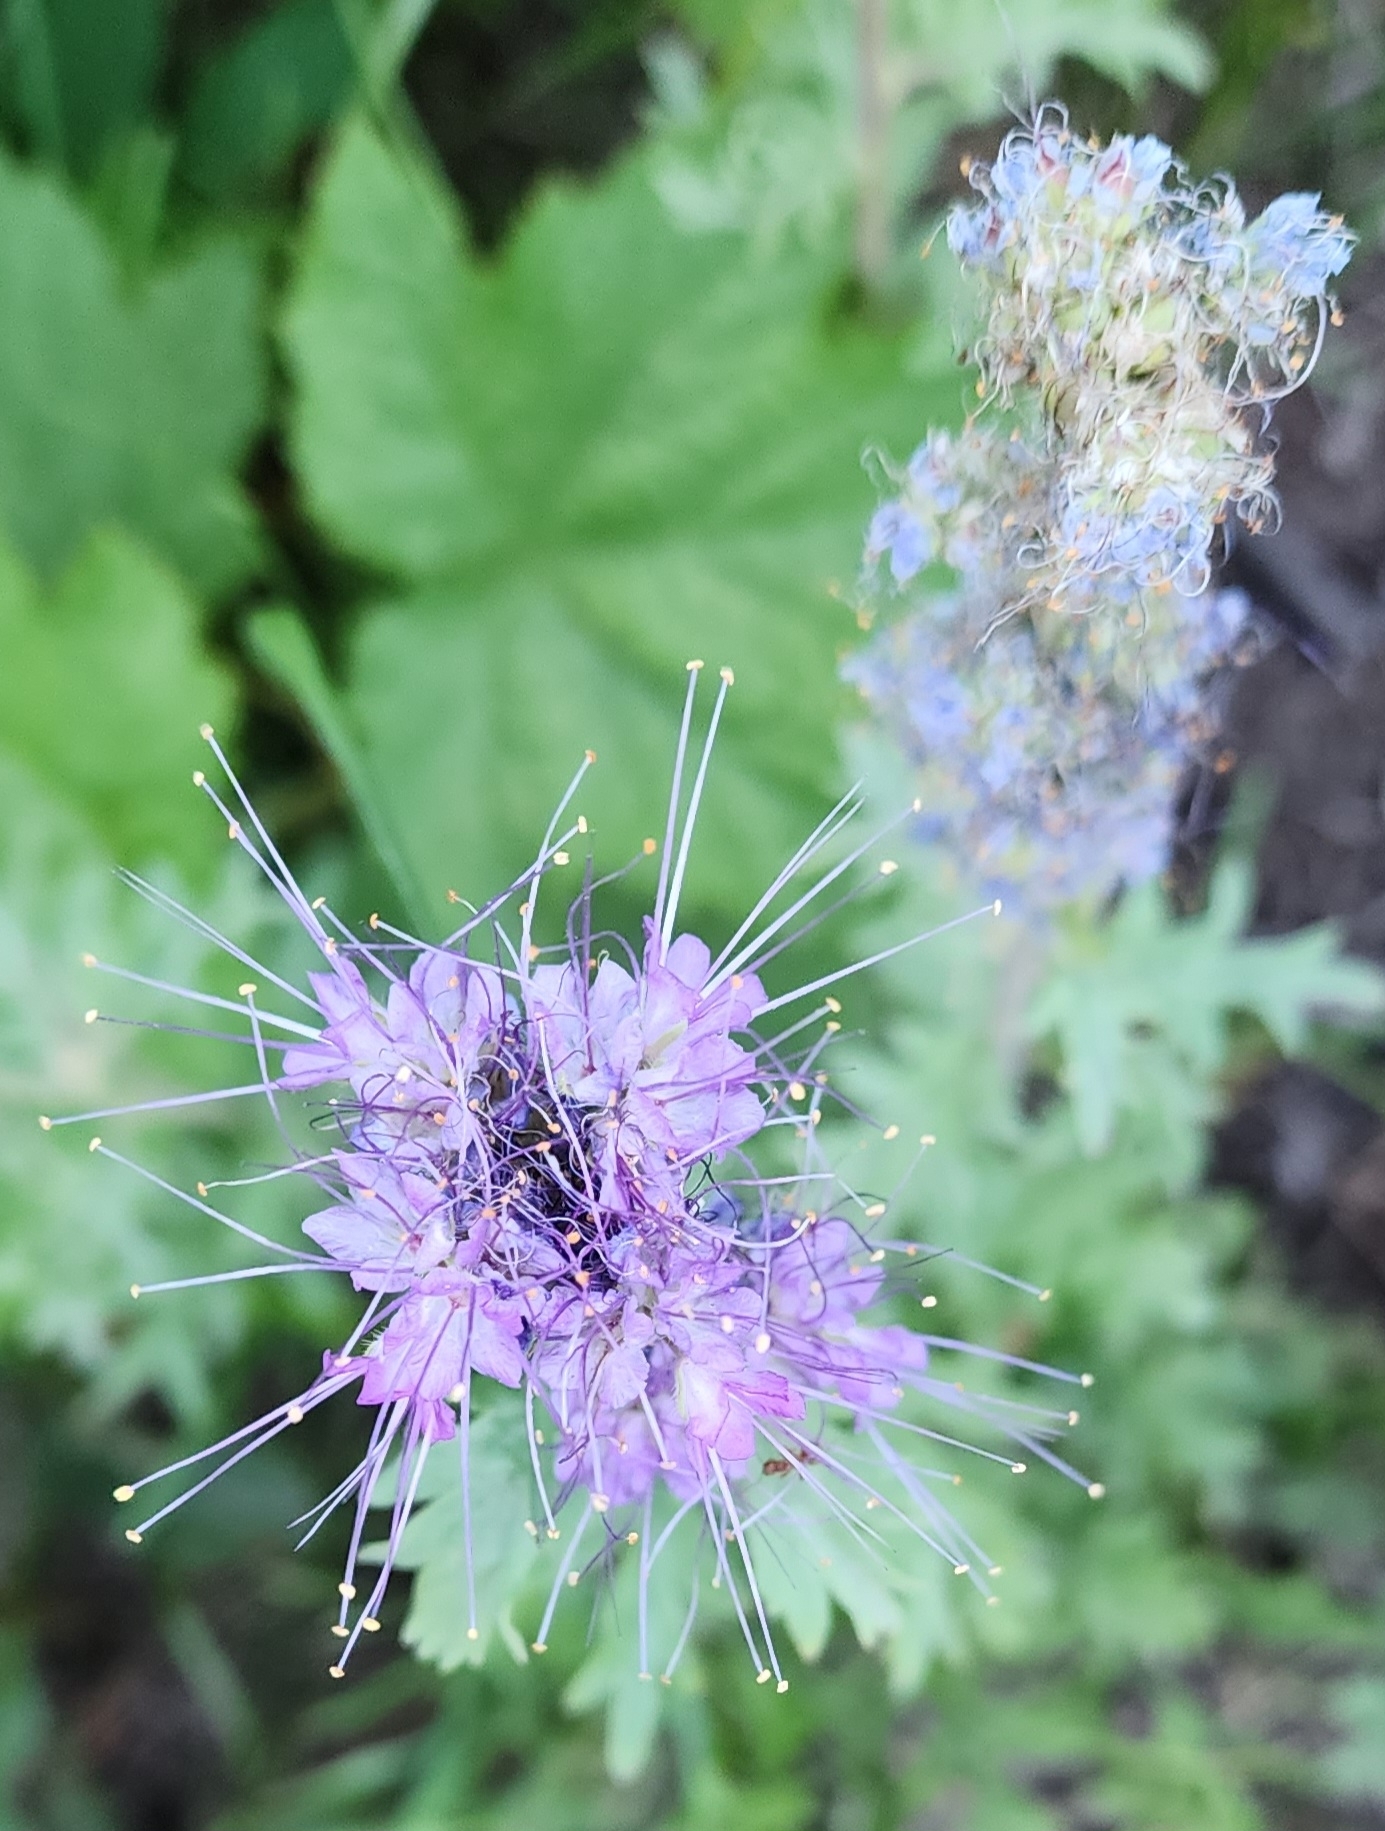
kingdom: Plantae
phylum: Tracheophyta
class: Magnoliopsida
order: Boraginales
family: Hydrophyllaceae
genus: Phacelia
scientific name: Phacelia sericea
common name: Silky phacelia
